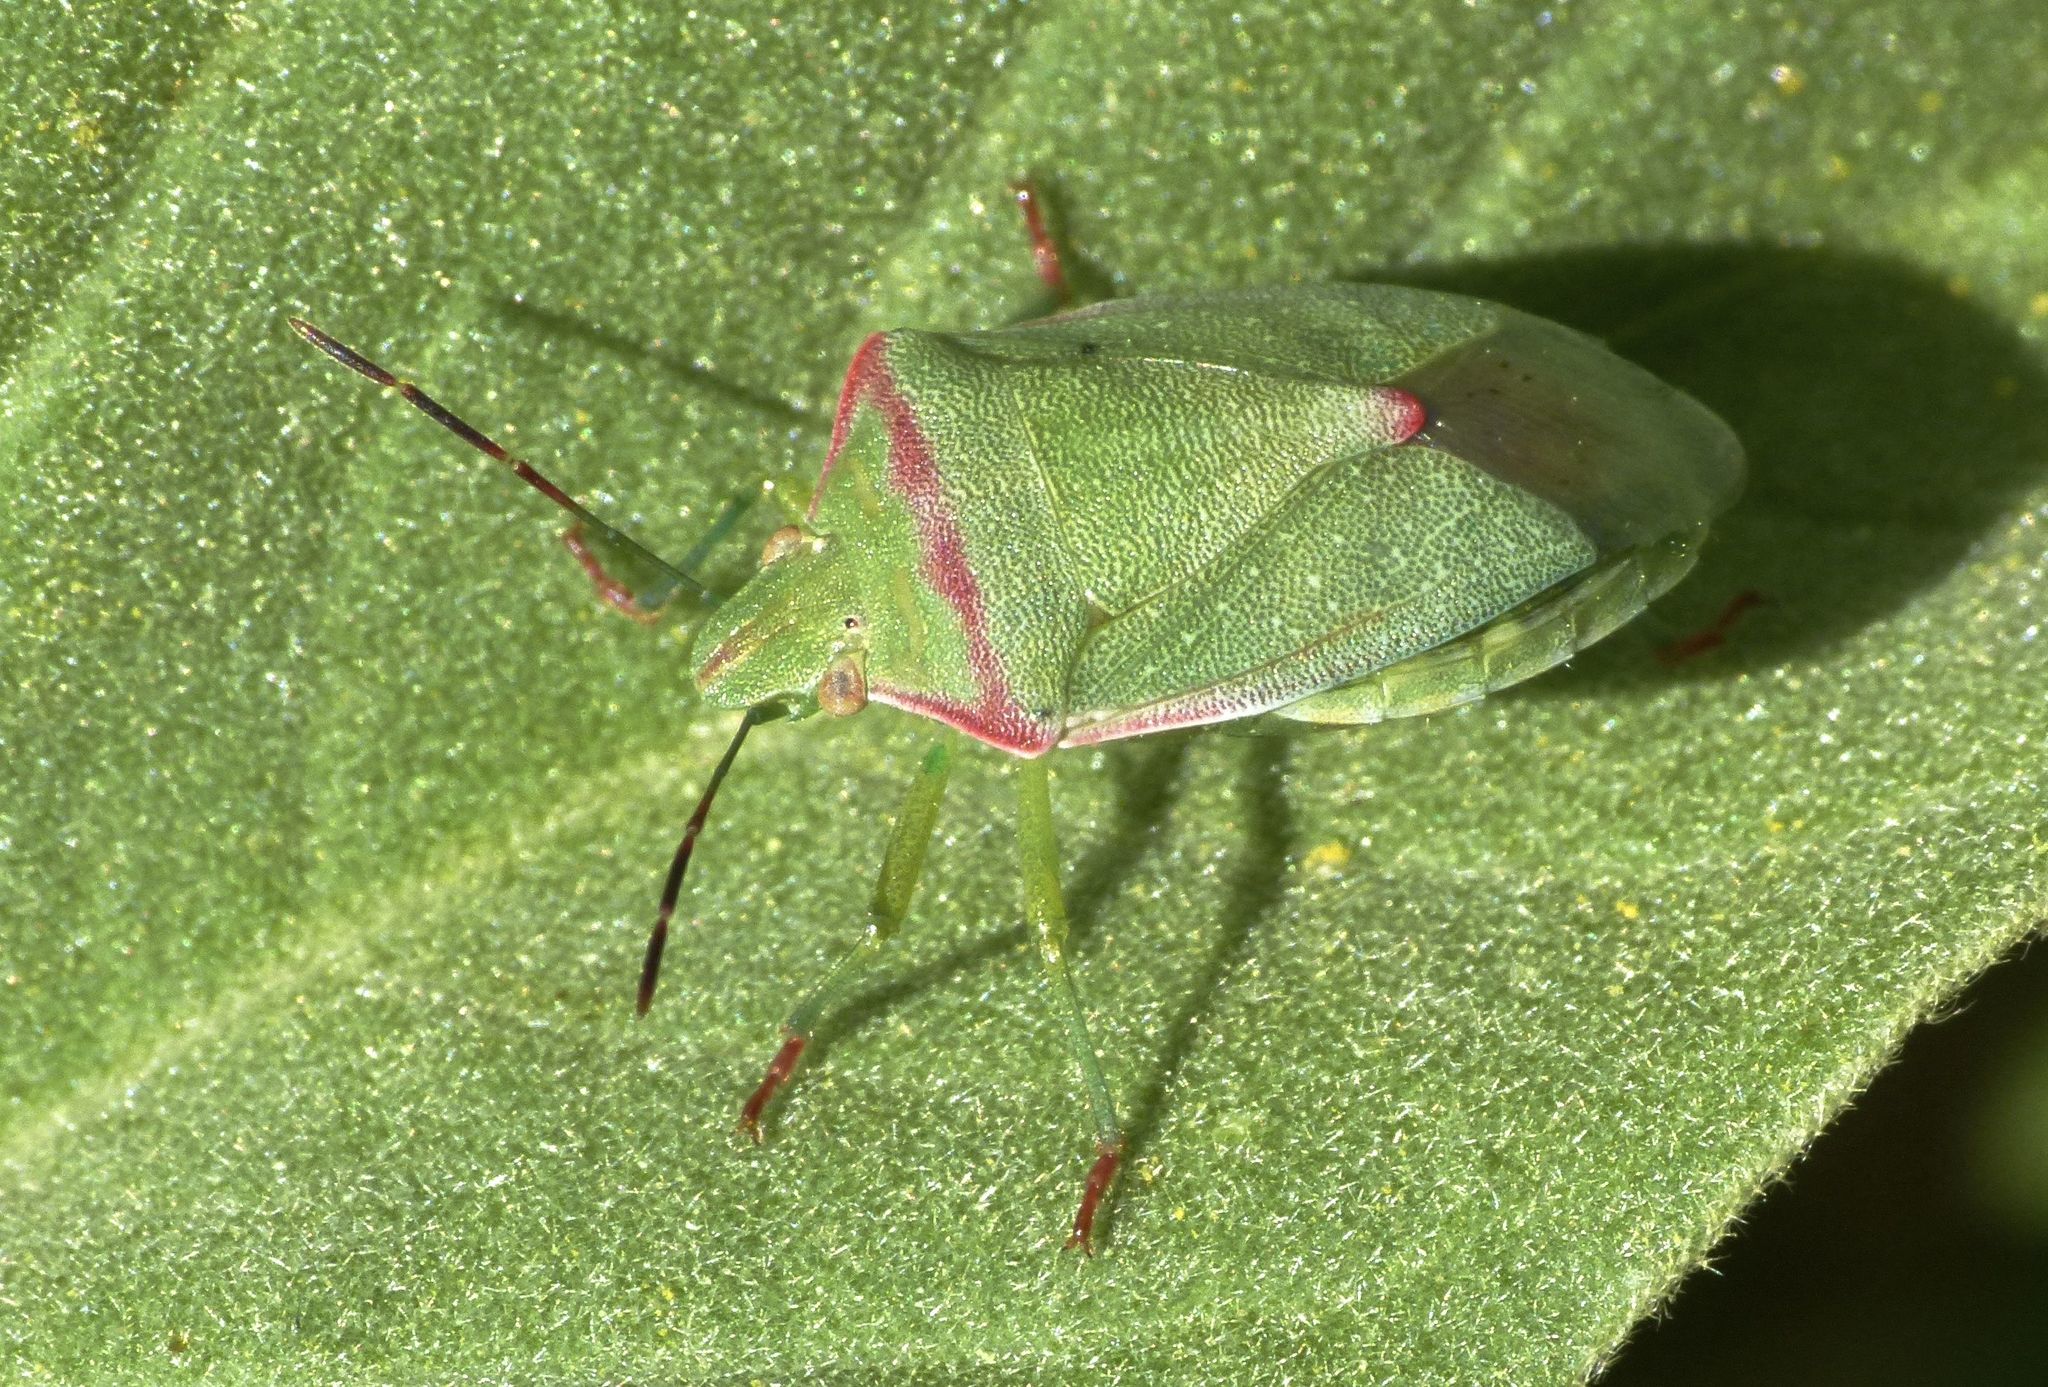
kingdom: Animalia
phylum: Arthropoda
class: Insecta
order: Hemiptera
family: Pentatomidae
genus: Thyanta
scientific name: Thyanta custator
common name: Stink bug
